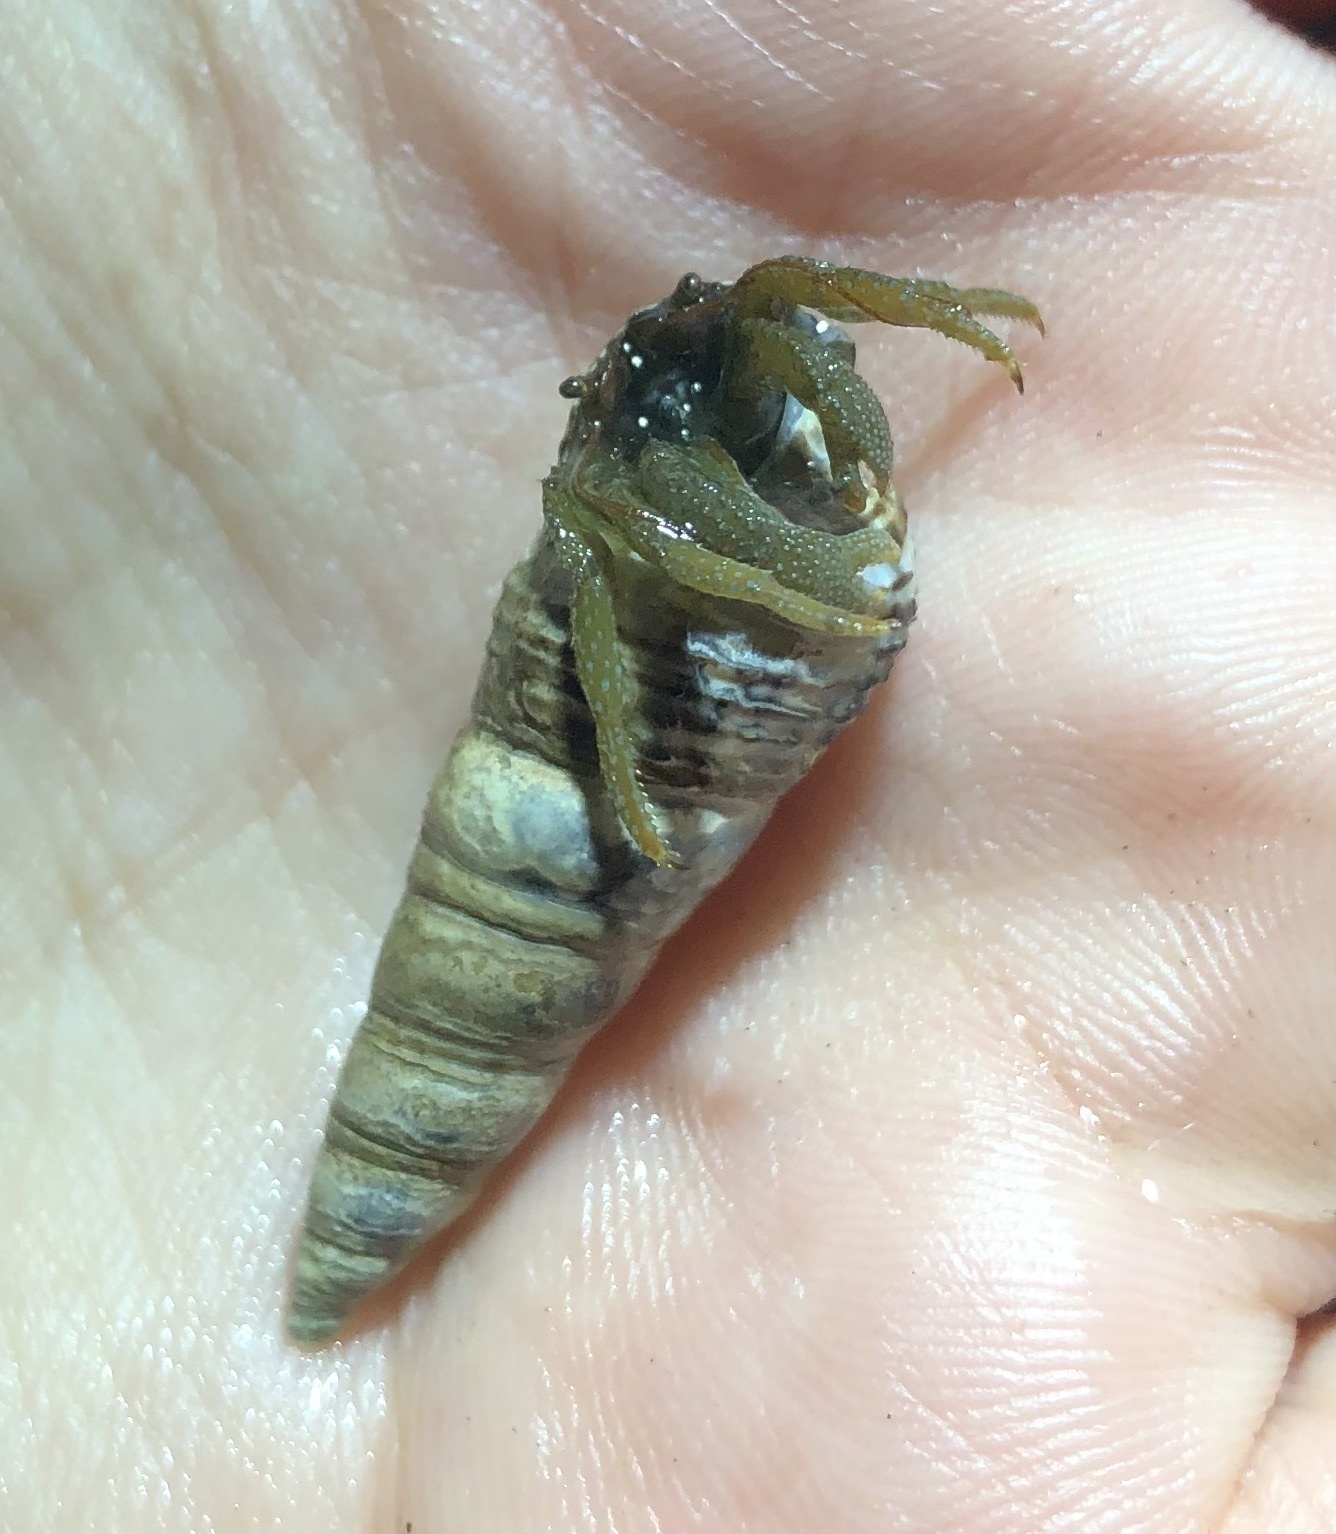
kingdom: Animalia
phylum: Arthropoda
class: Malacostraca
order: Decapoda
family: Paguridae
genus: Pagurus
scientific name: Pagurus granosimanus
